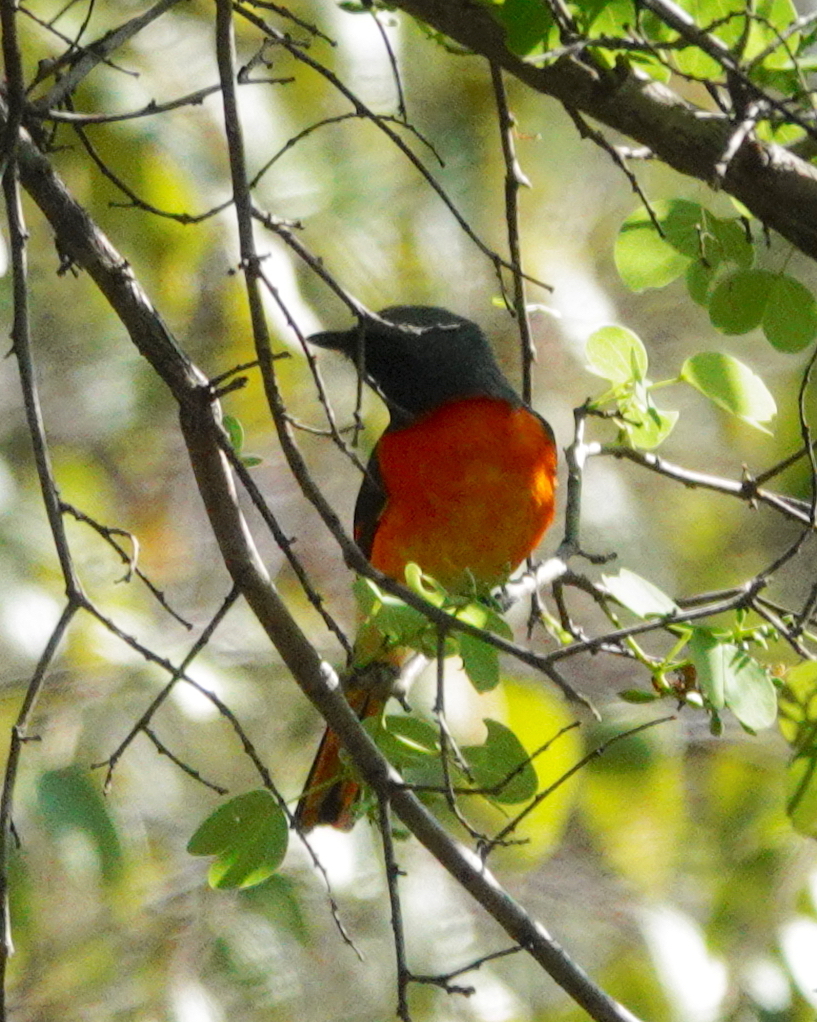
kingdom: Animalia
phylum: Chordata
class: Aves
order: Passeriformes
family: Campephagidae
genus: Pericrocotus
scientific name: Pericrocotus cinnamomeus
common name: Small minivet
